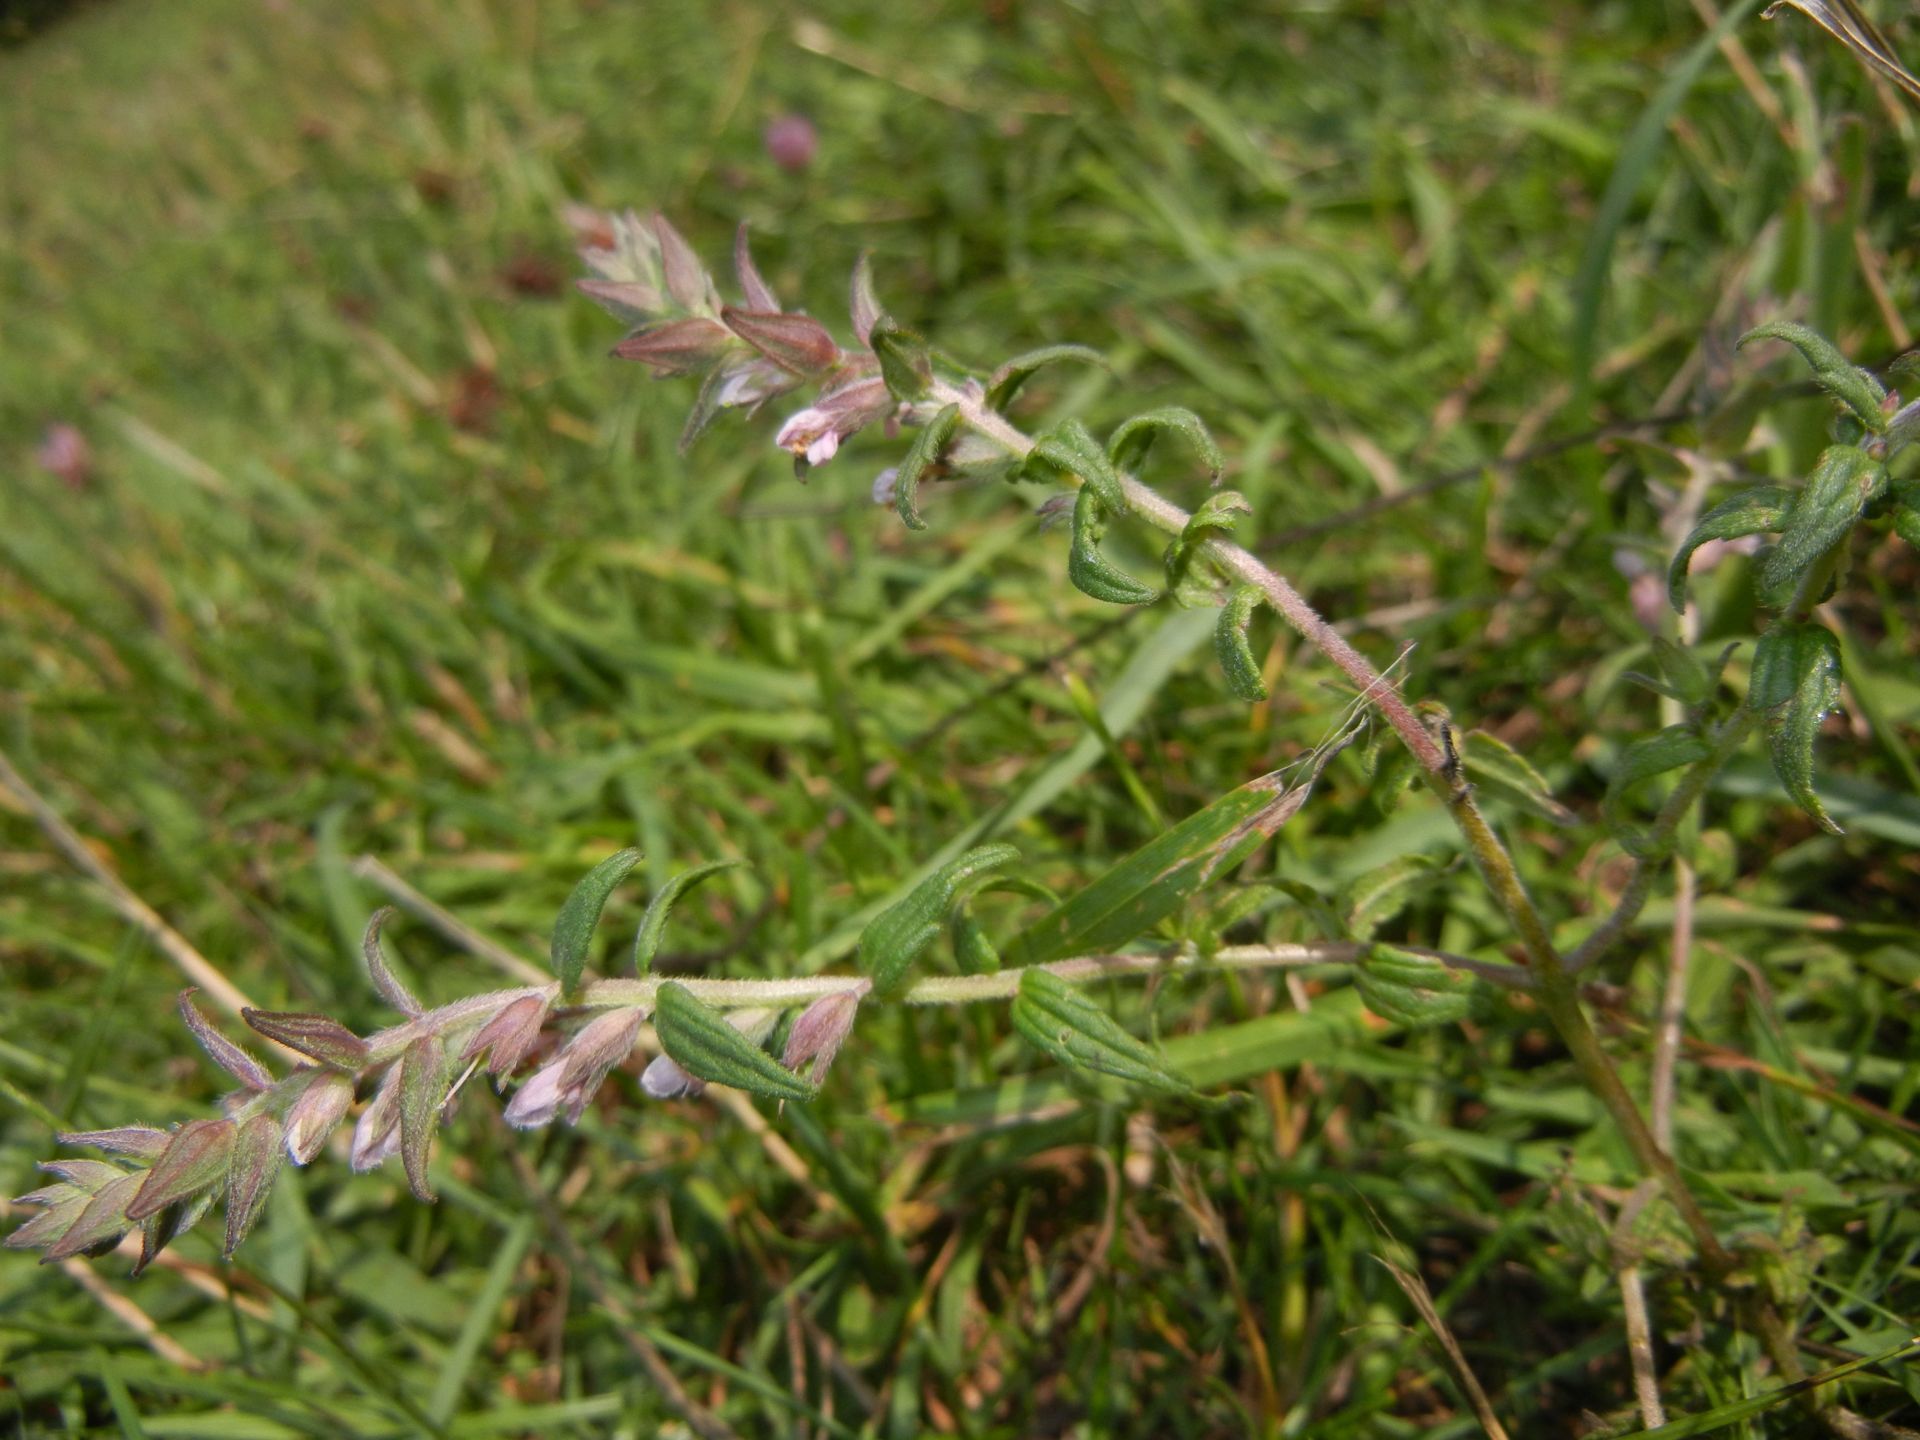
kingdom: Plantae
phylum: Tracheophyta
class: Magnoliopsida
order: Lamiales
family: Orobanchaceae
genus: Odontites
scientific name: Odontites vernus
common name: Red bartsia
